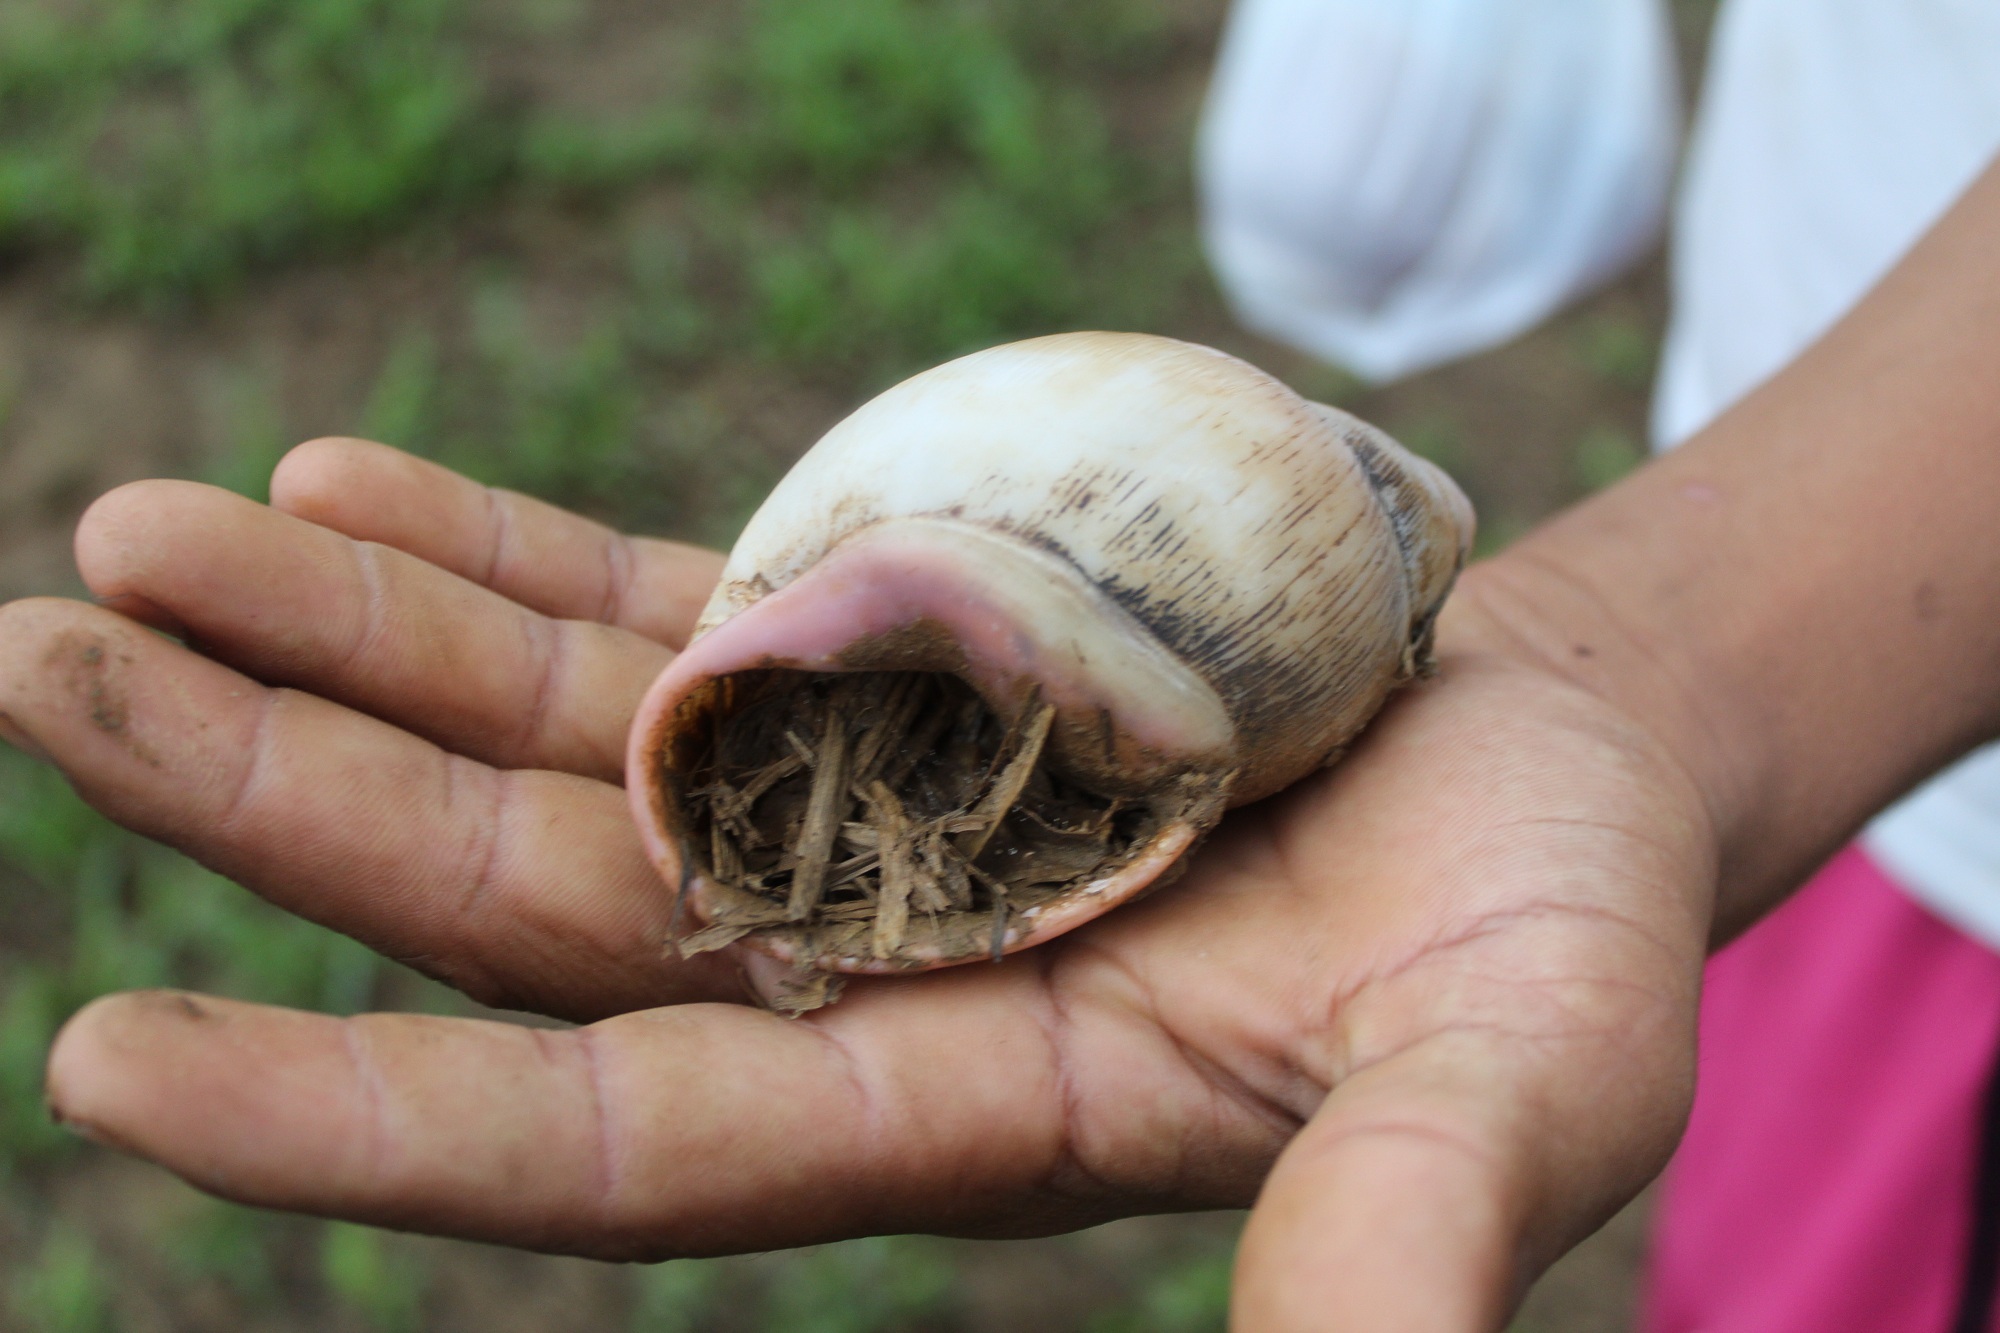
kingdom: Animalia
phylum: Mollusca
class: Gastropoda
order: Stylommatophora
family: Strophocheilidae
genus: Megalobulimus
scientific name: Megalobulimus oblongus
